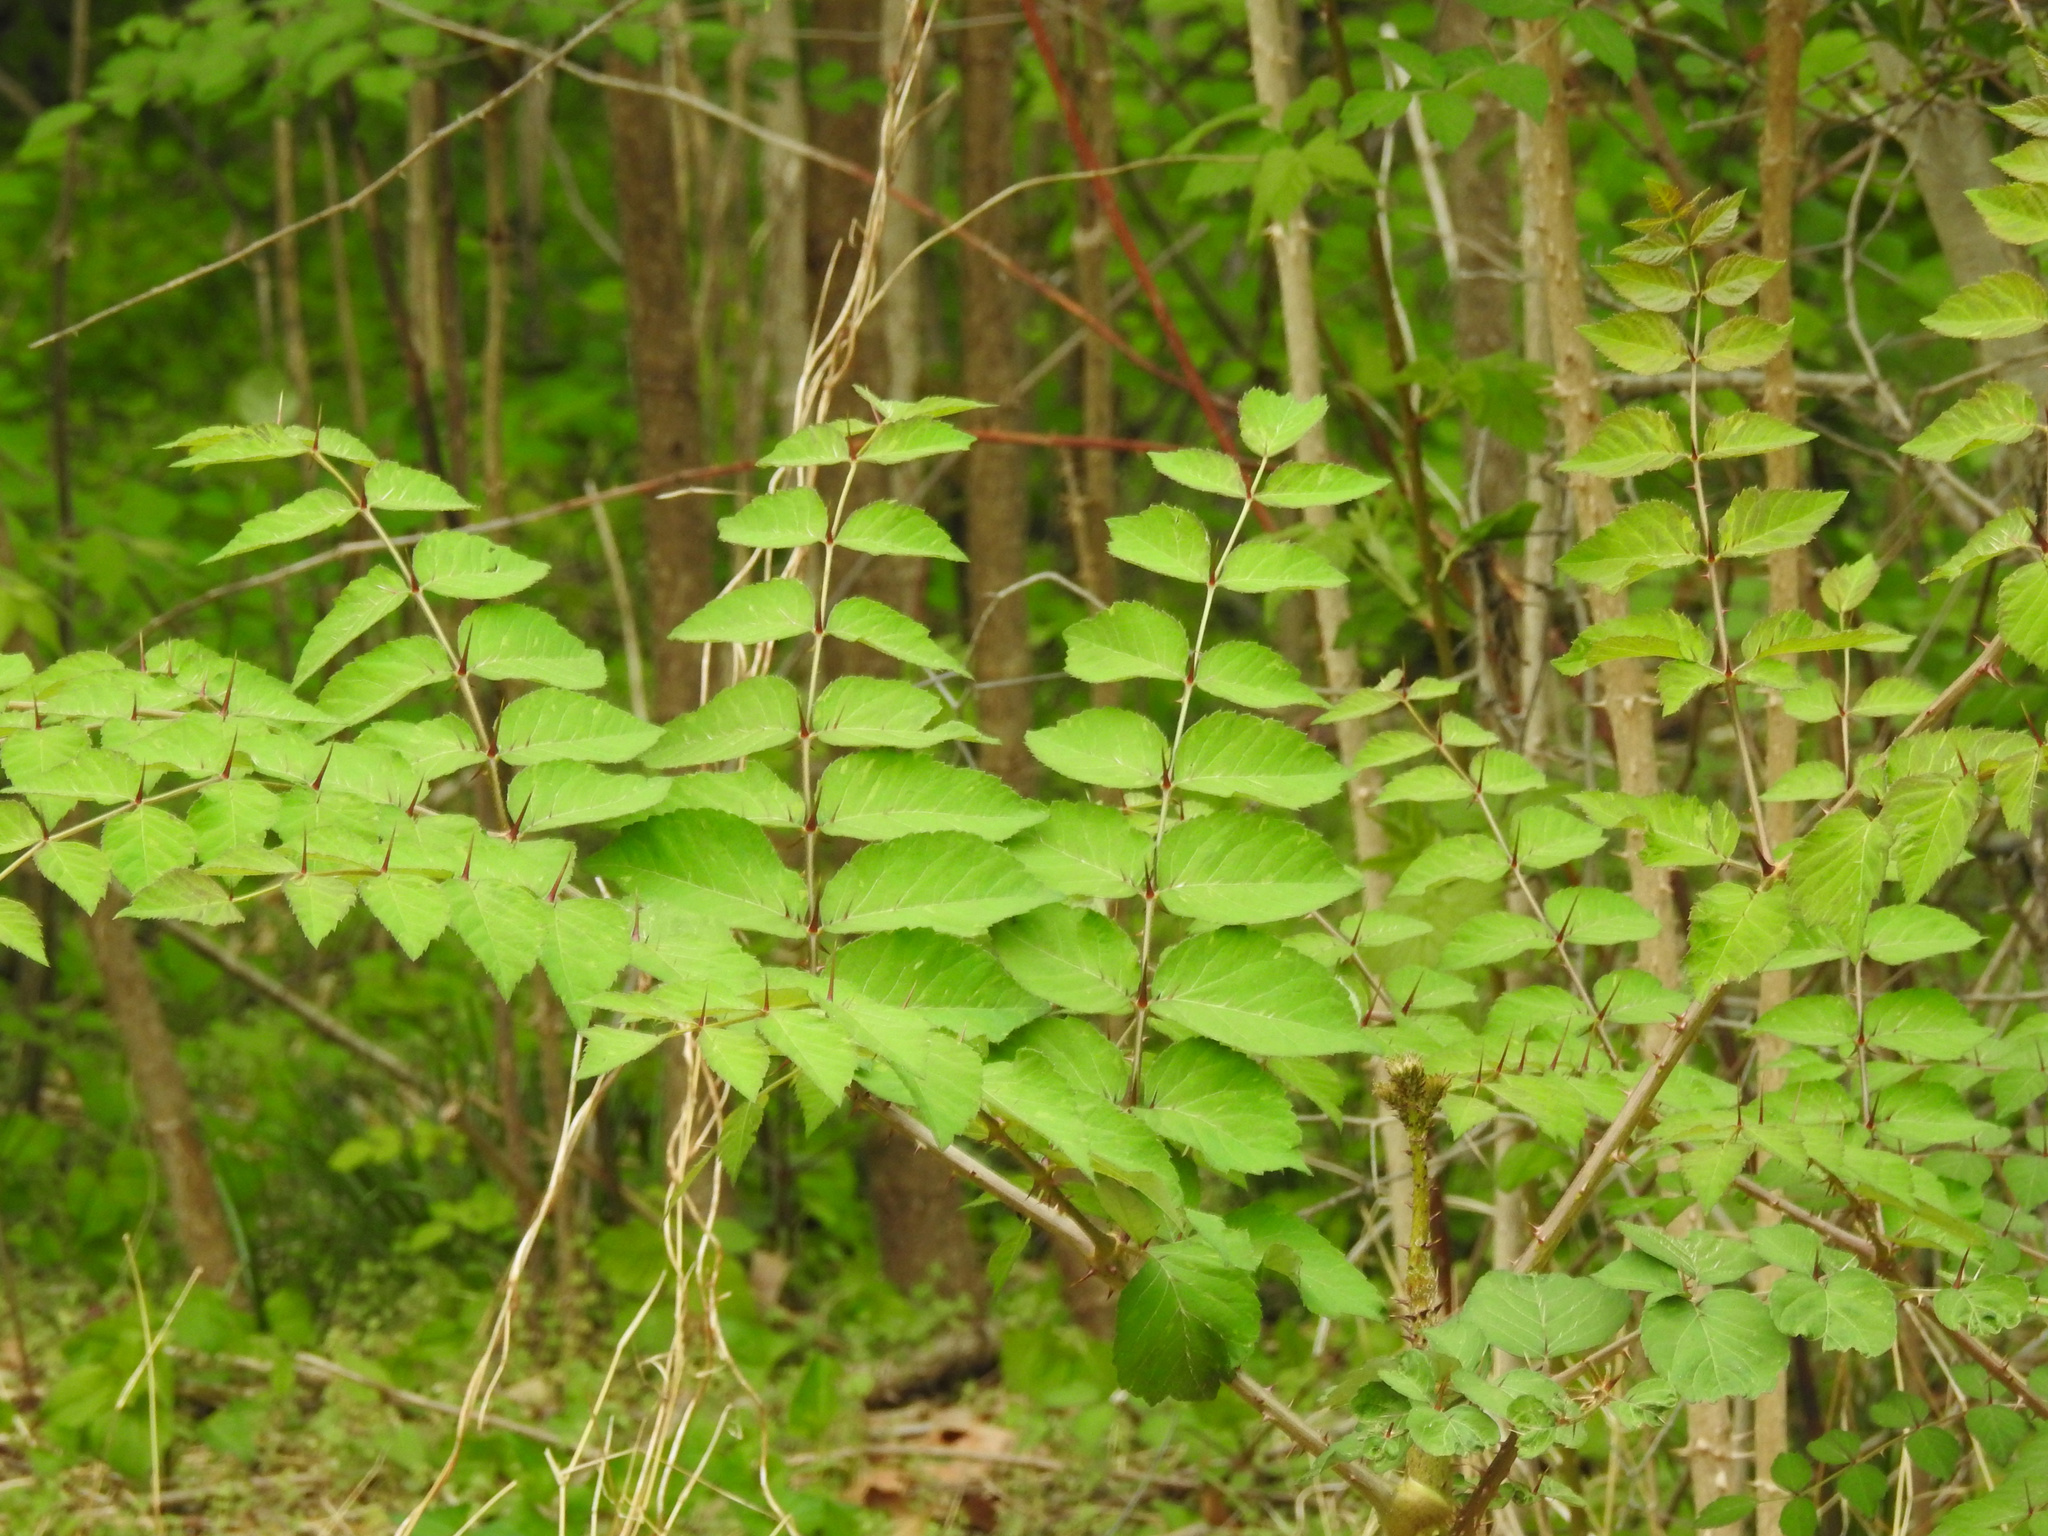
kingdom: Plantae
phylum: Tracheophyta
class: Magnoliopsida
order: Apiales
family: Araliaceae
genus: Aralia
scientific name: Aralia elata
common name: Japanese angelica-tree
